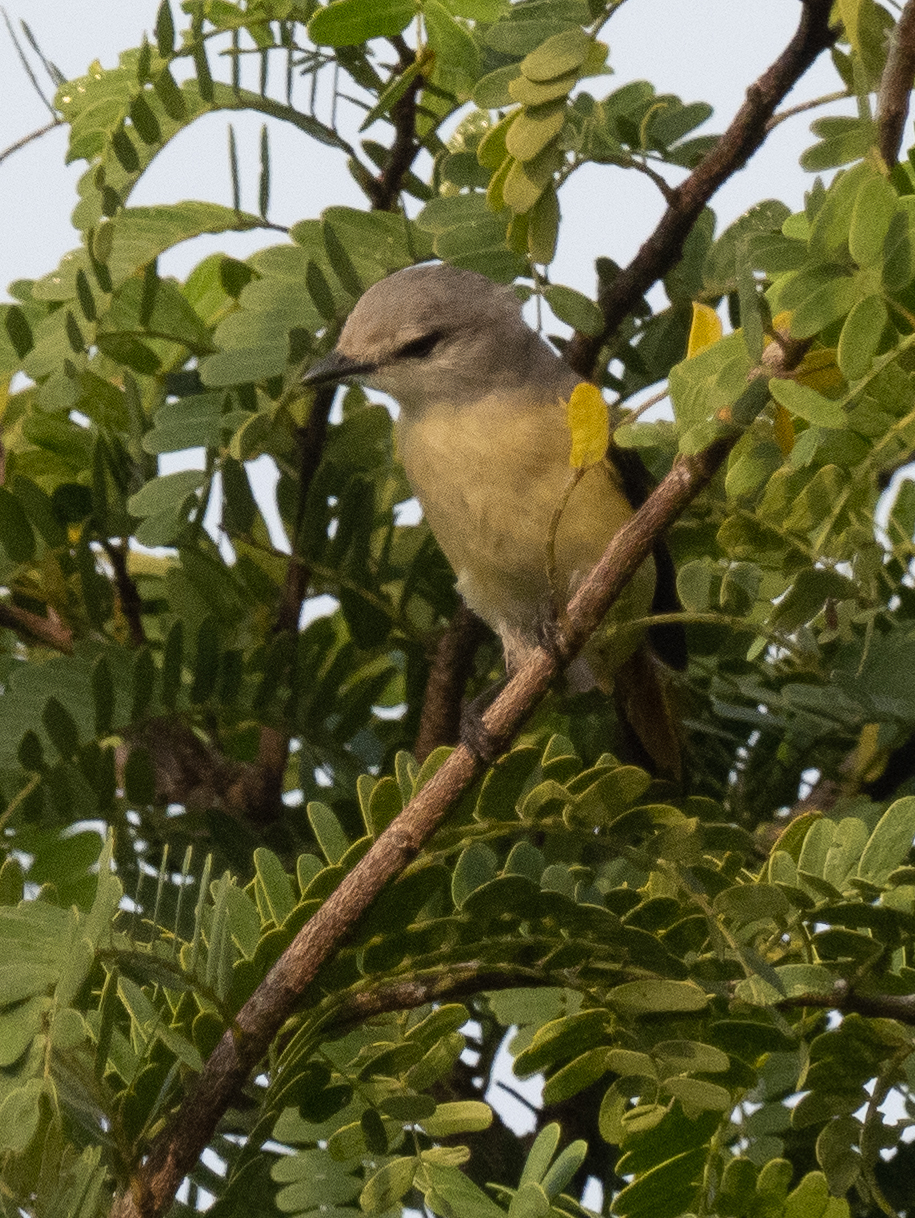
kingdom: Animalia
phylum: Chordata
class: Aves
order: Passeriformes
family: Campephagidae
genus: Pericrocotus
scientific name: Pericrocotus cinnamomeus
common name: Small minivet
